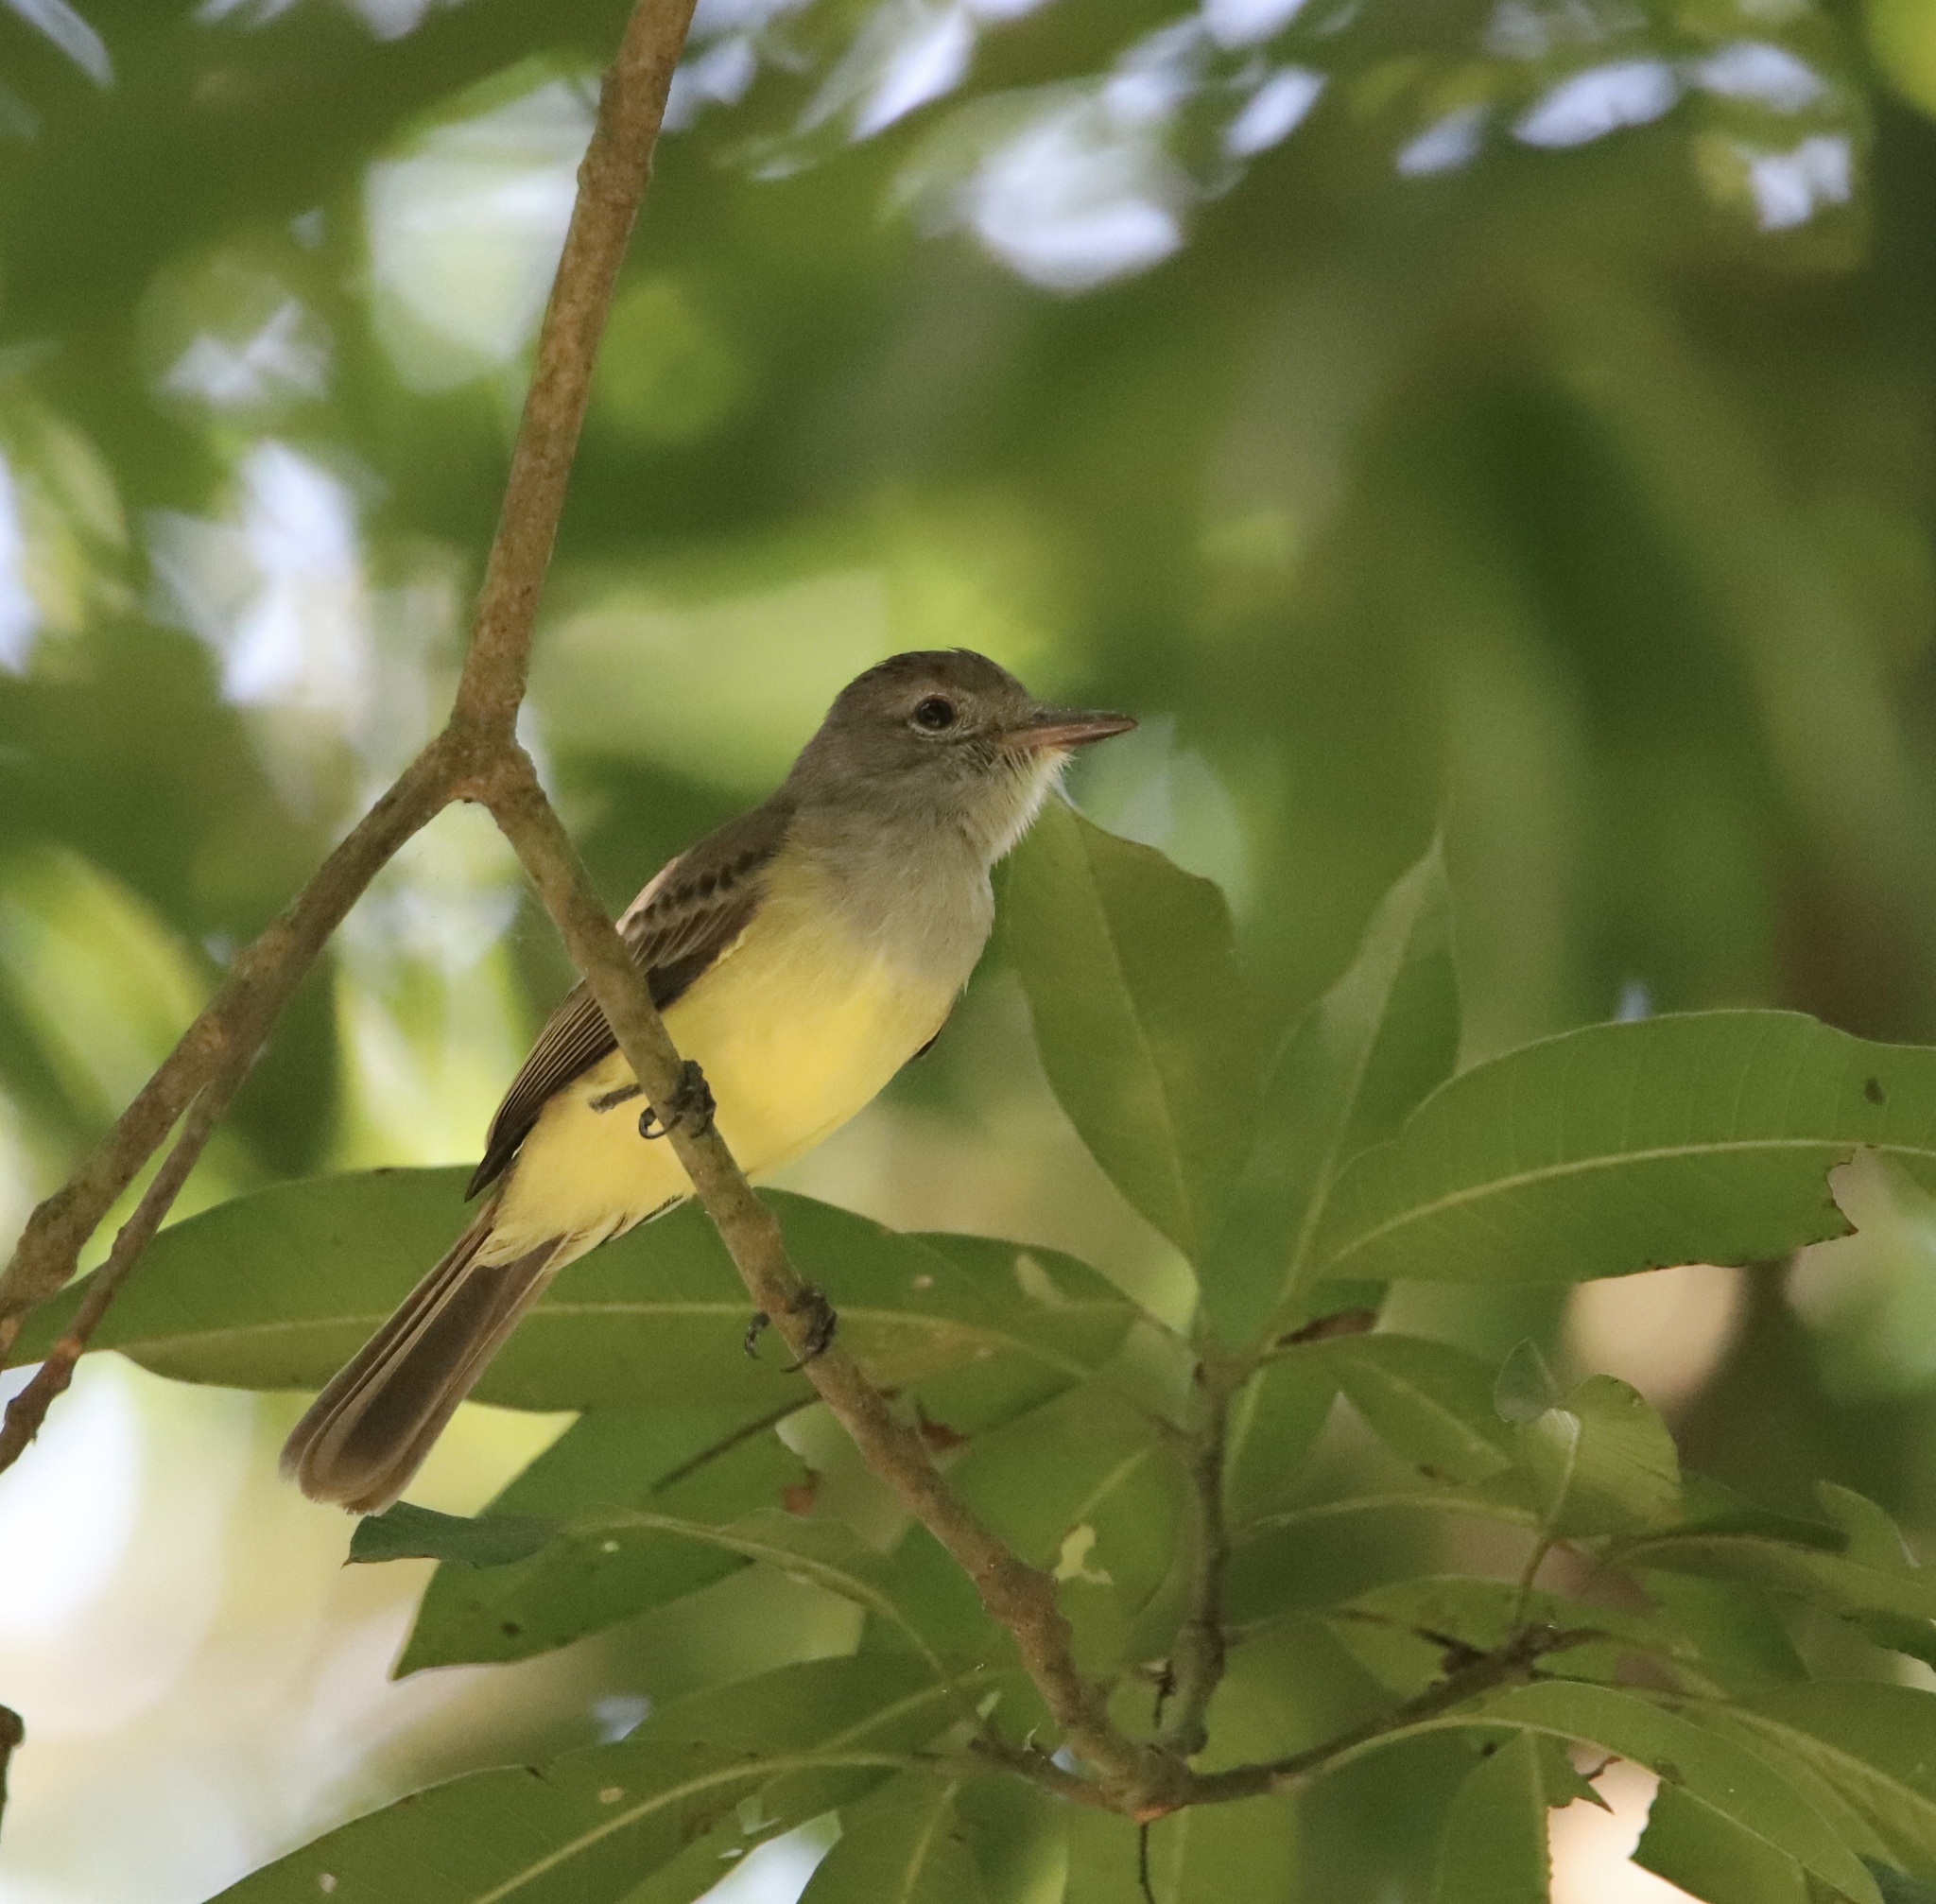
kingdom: Animalia
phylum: Chordata
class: Aves
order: Passeriformes
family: Tyrannidae
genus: Myiarchus
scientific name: Myiarchus panamensis
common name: Panama flycatcher
